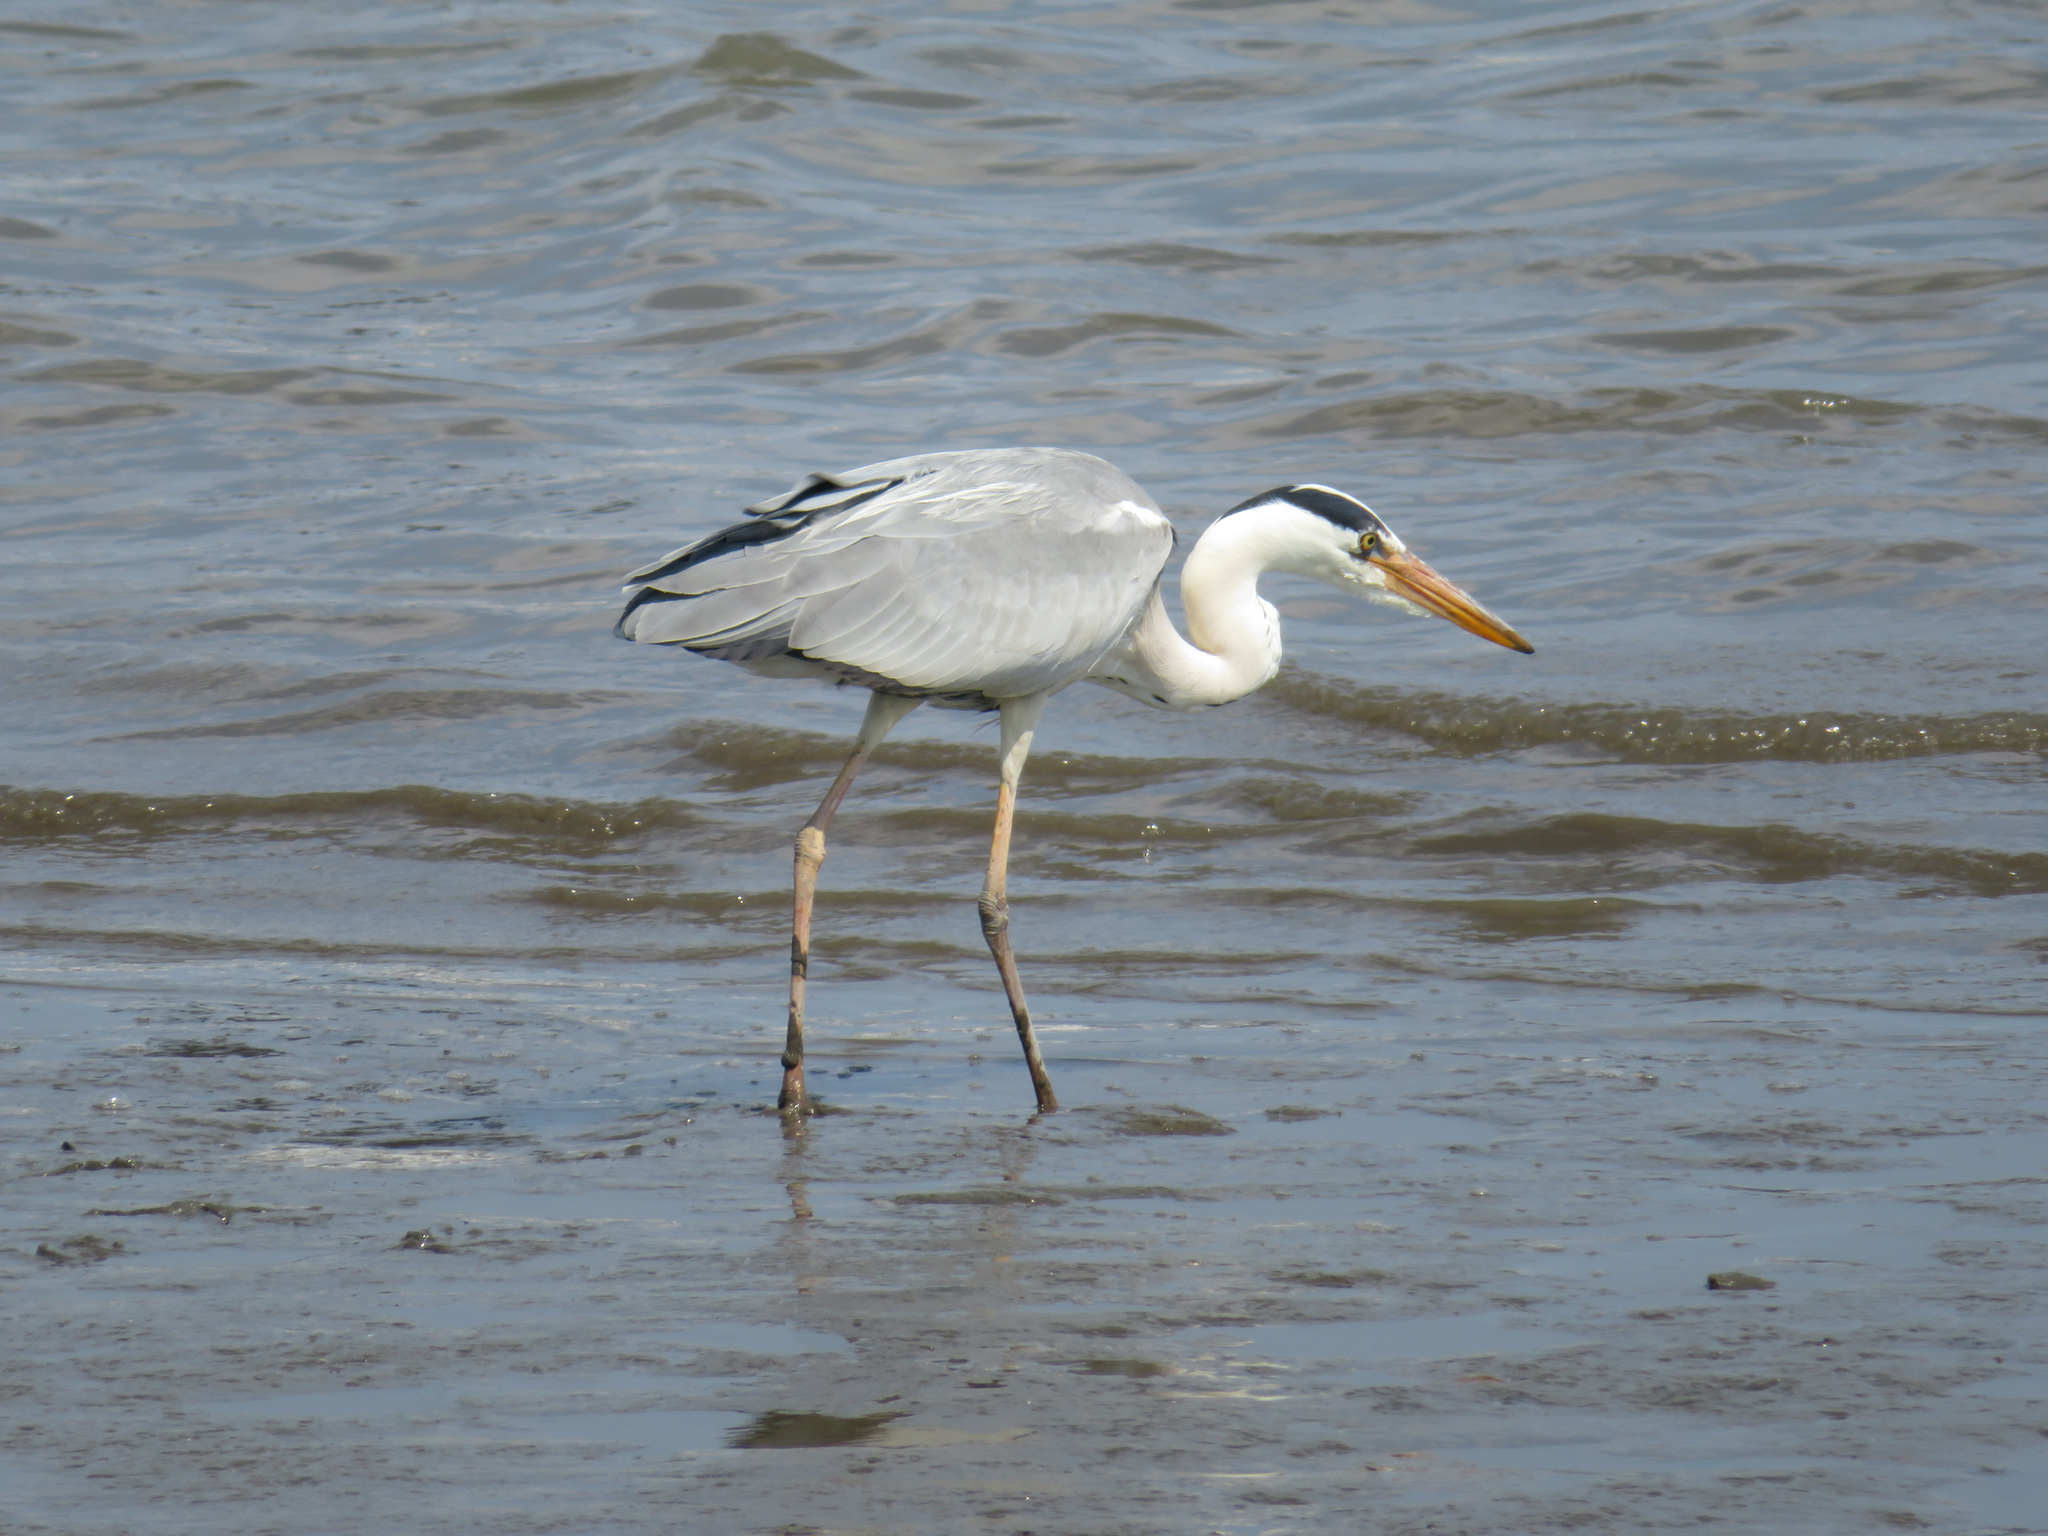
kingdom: Animalia
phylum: Chordata
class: Aves
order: Pelecaniformes
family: Ardeidae
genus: Ardea
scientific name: Ardea cinerea
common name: Grey heron
